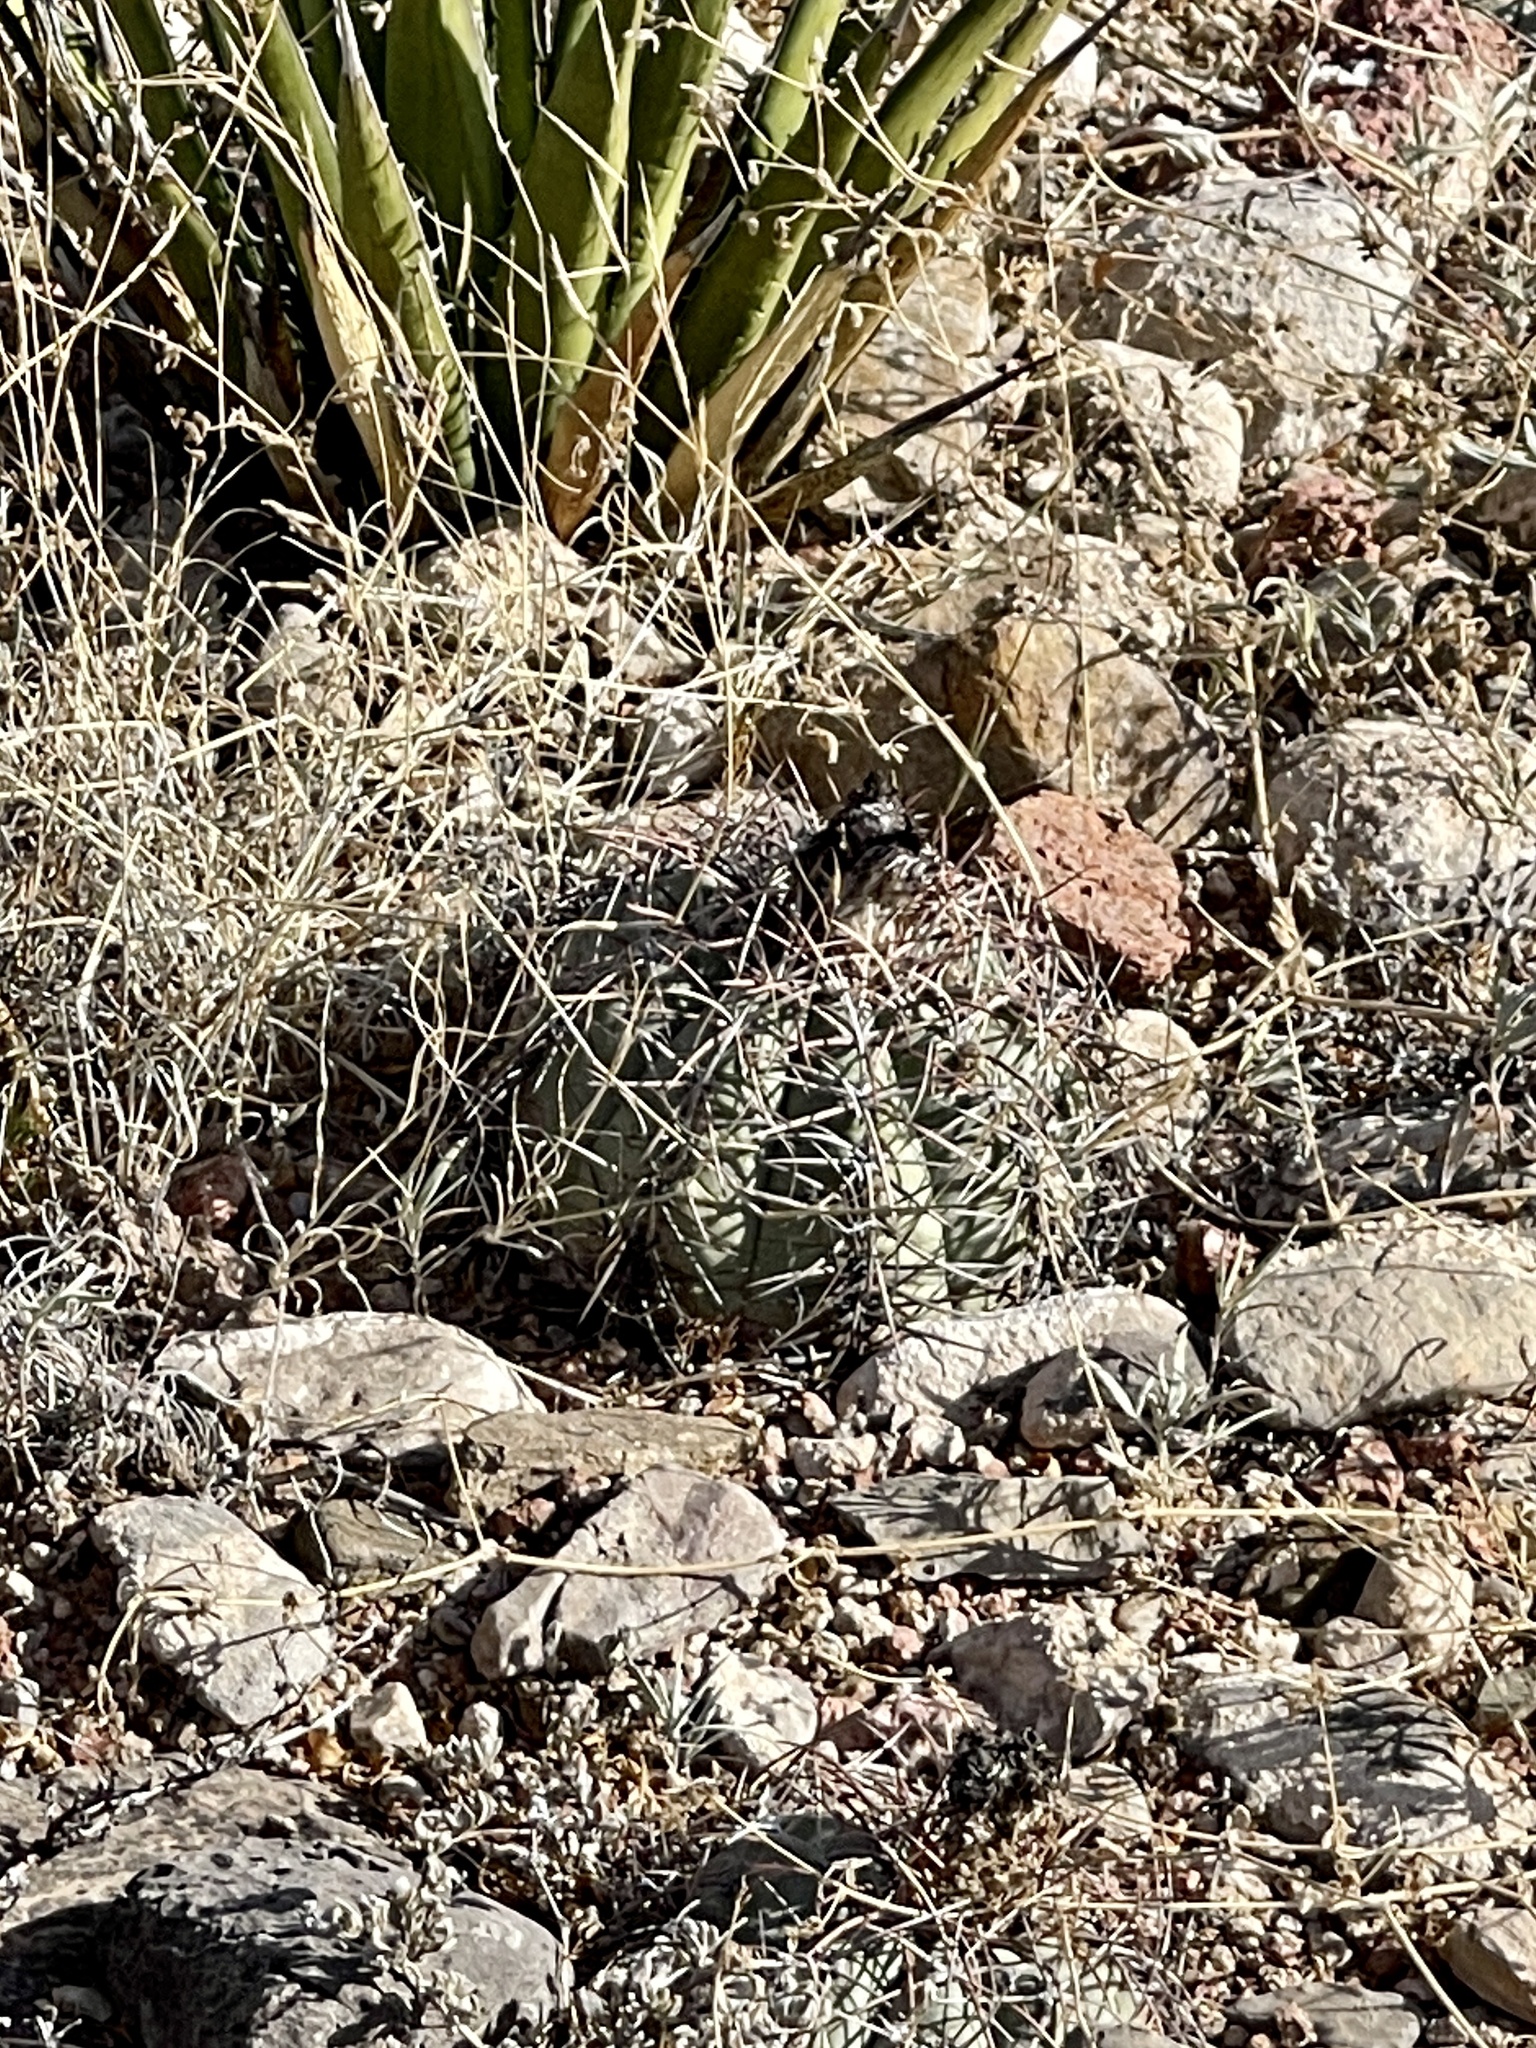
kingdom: Plantae
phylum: Tracheophyta
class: Magnoliopsida
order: Caryophyllales
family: Cactaceae
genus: Echinocactus
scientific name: Echinocactus horizonthalonius
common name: Devilshead
